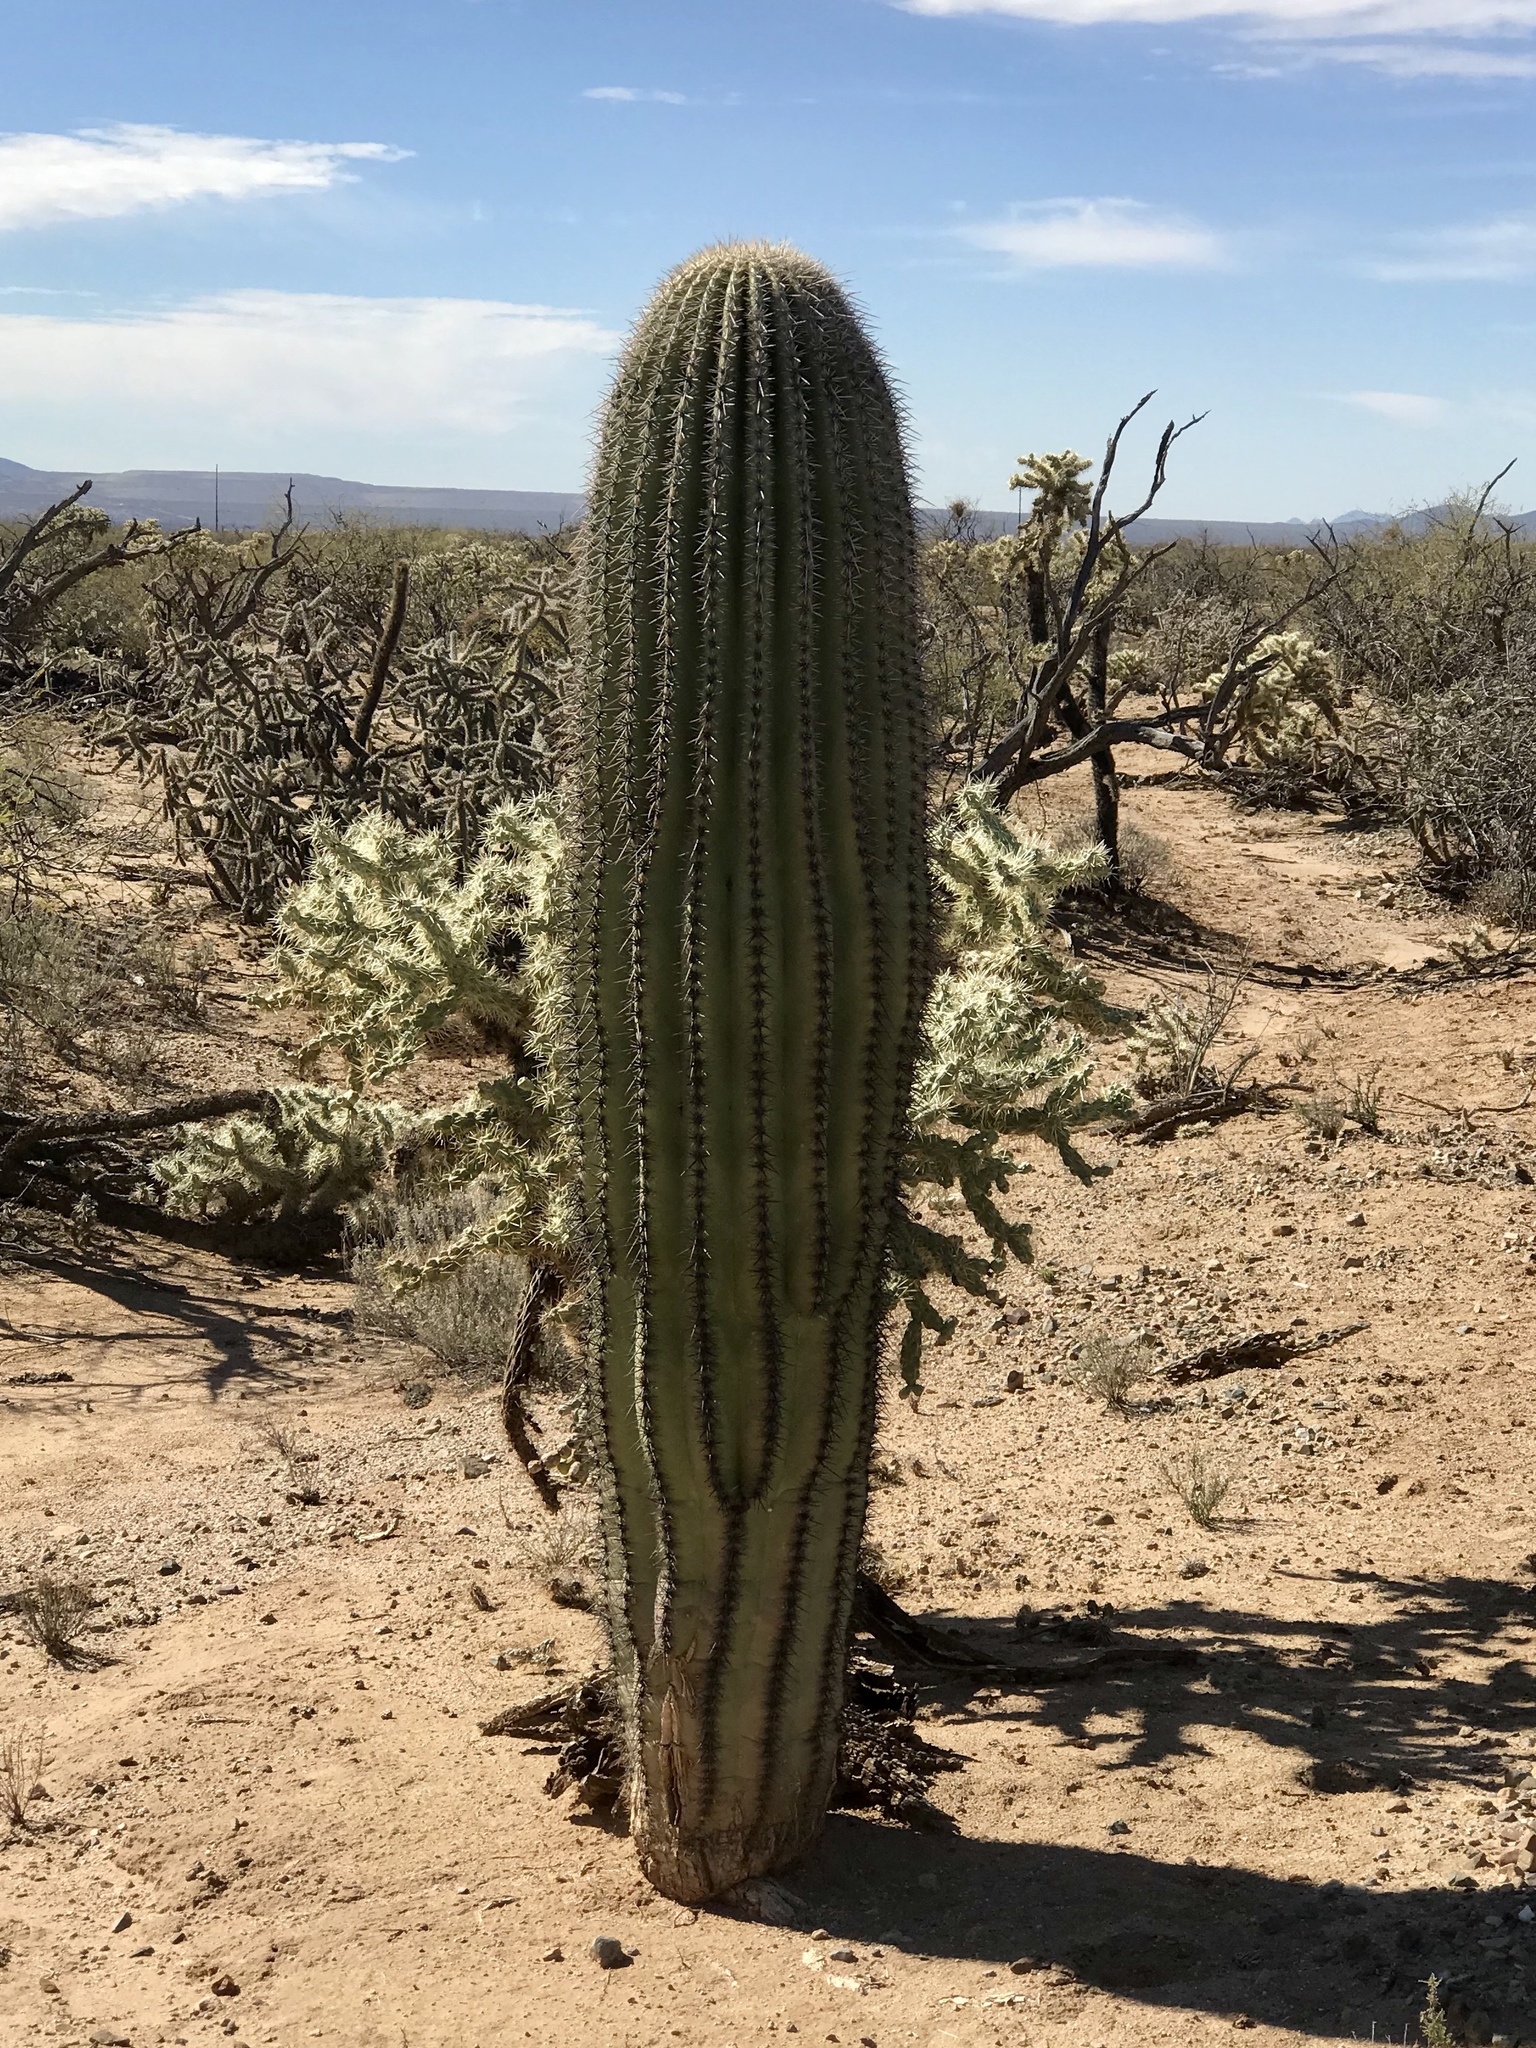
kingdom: Plantae
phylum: Tracheophyta
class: Magnoliopsida
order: Caryophyllales
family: Cactaceae
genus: Carnegiea
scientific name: Carnegiea gigantea
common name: Saguaro
